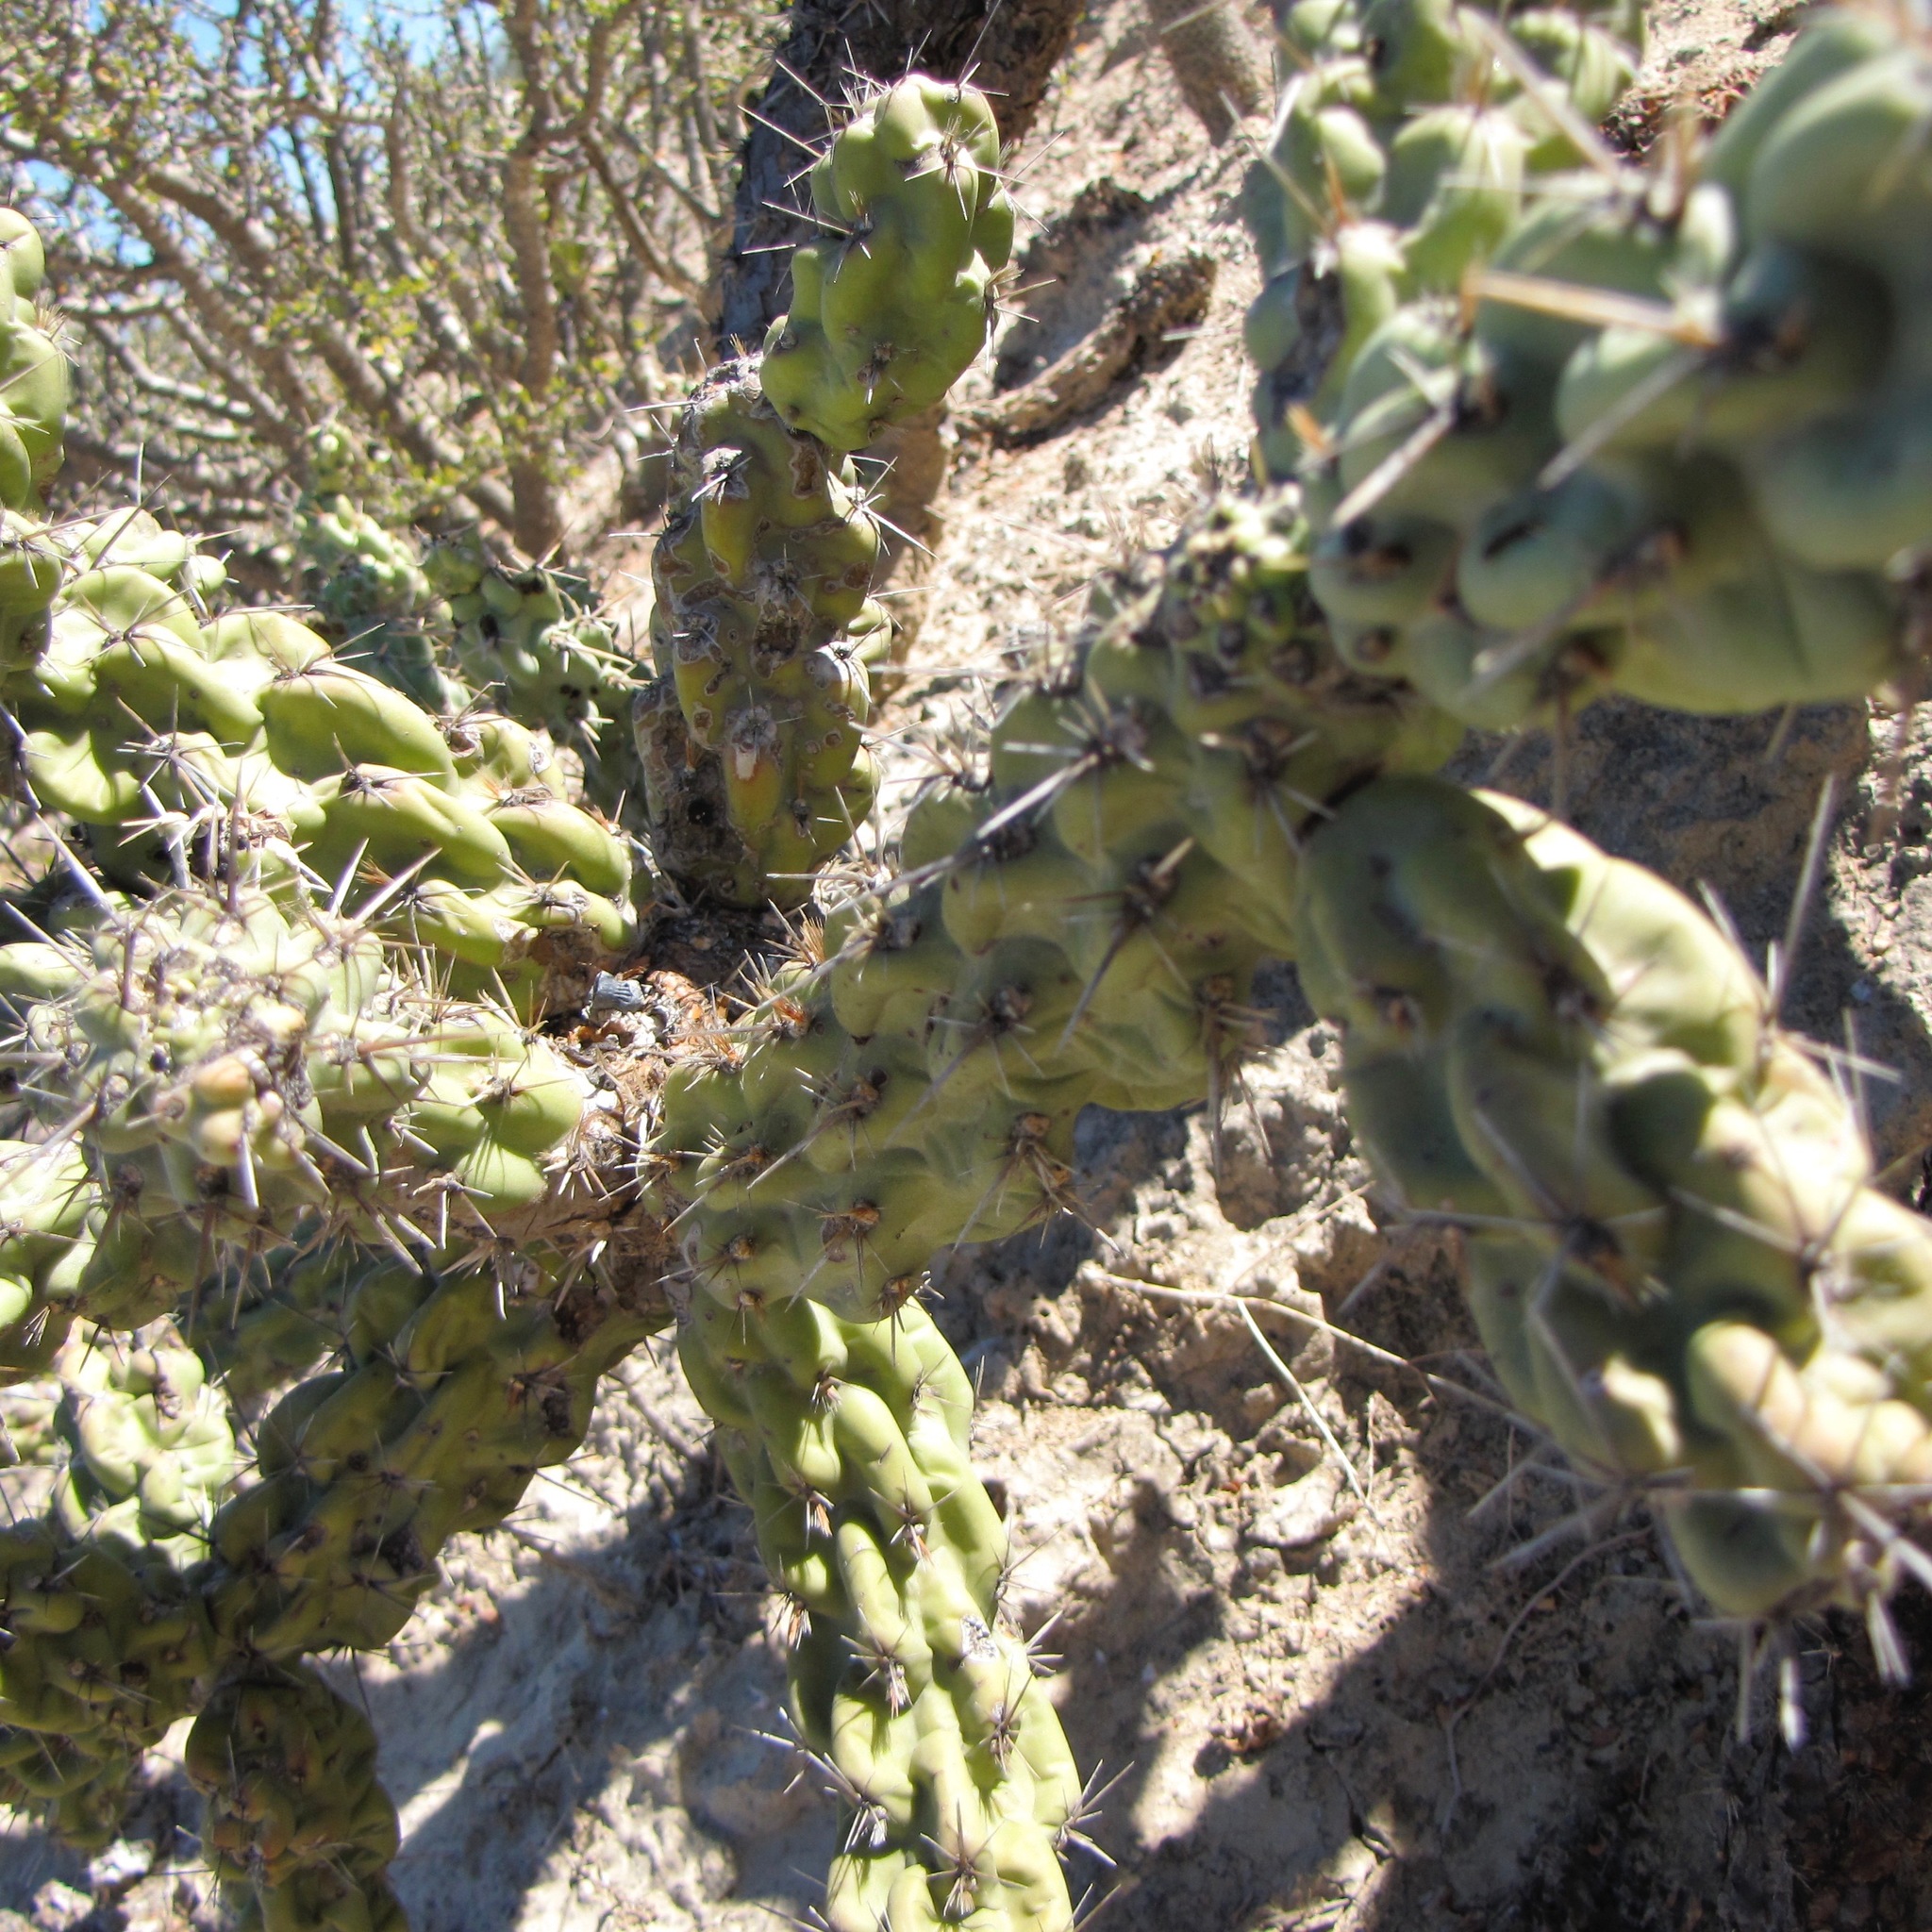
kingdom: Plantae
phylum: Tracheophyta
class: Magnoliopsida
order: Caryophyllales
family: Cactaceae
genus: Cylindropuntia
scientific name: Cylindropuntia cholla
